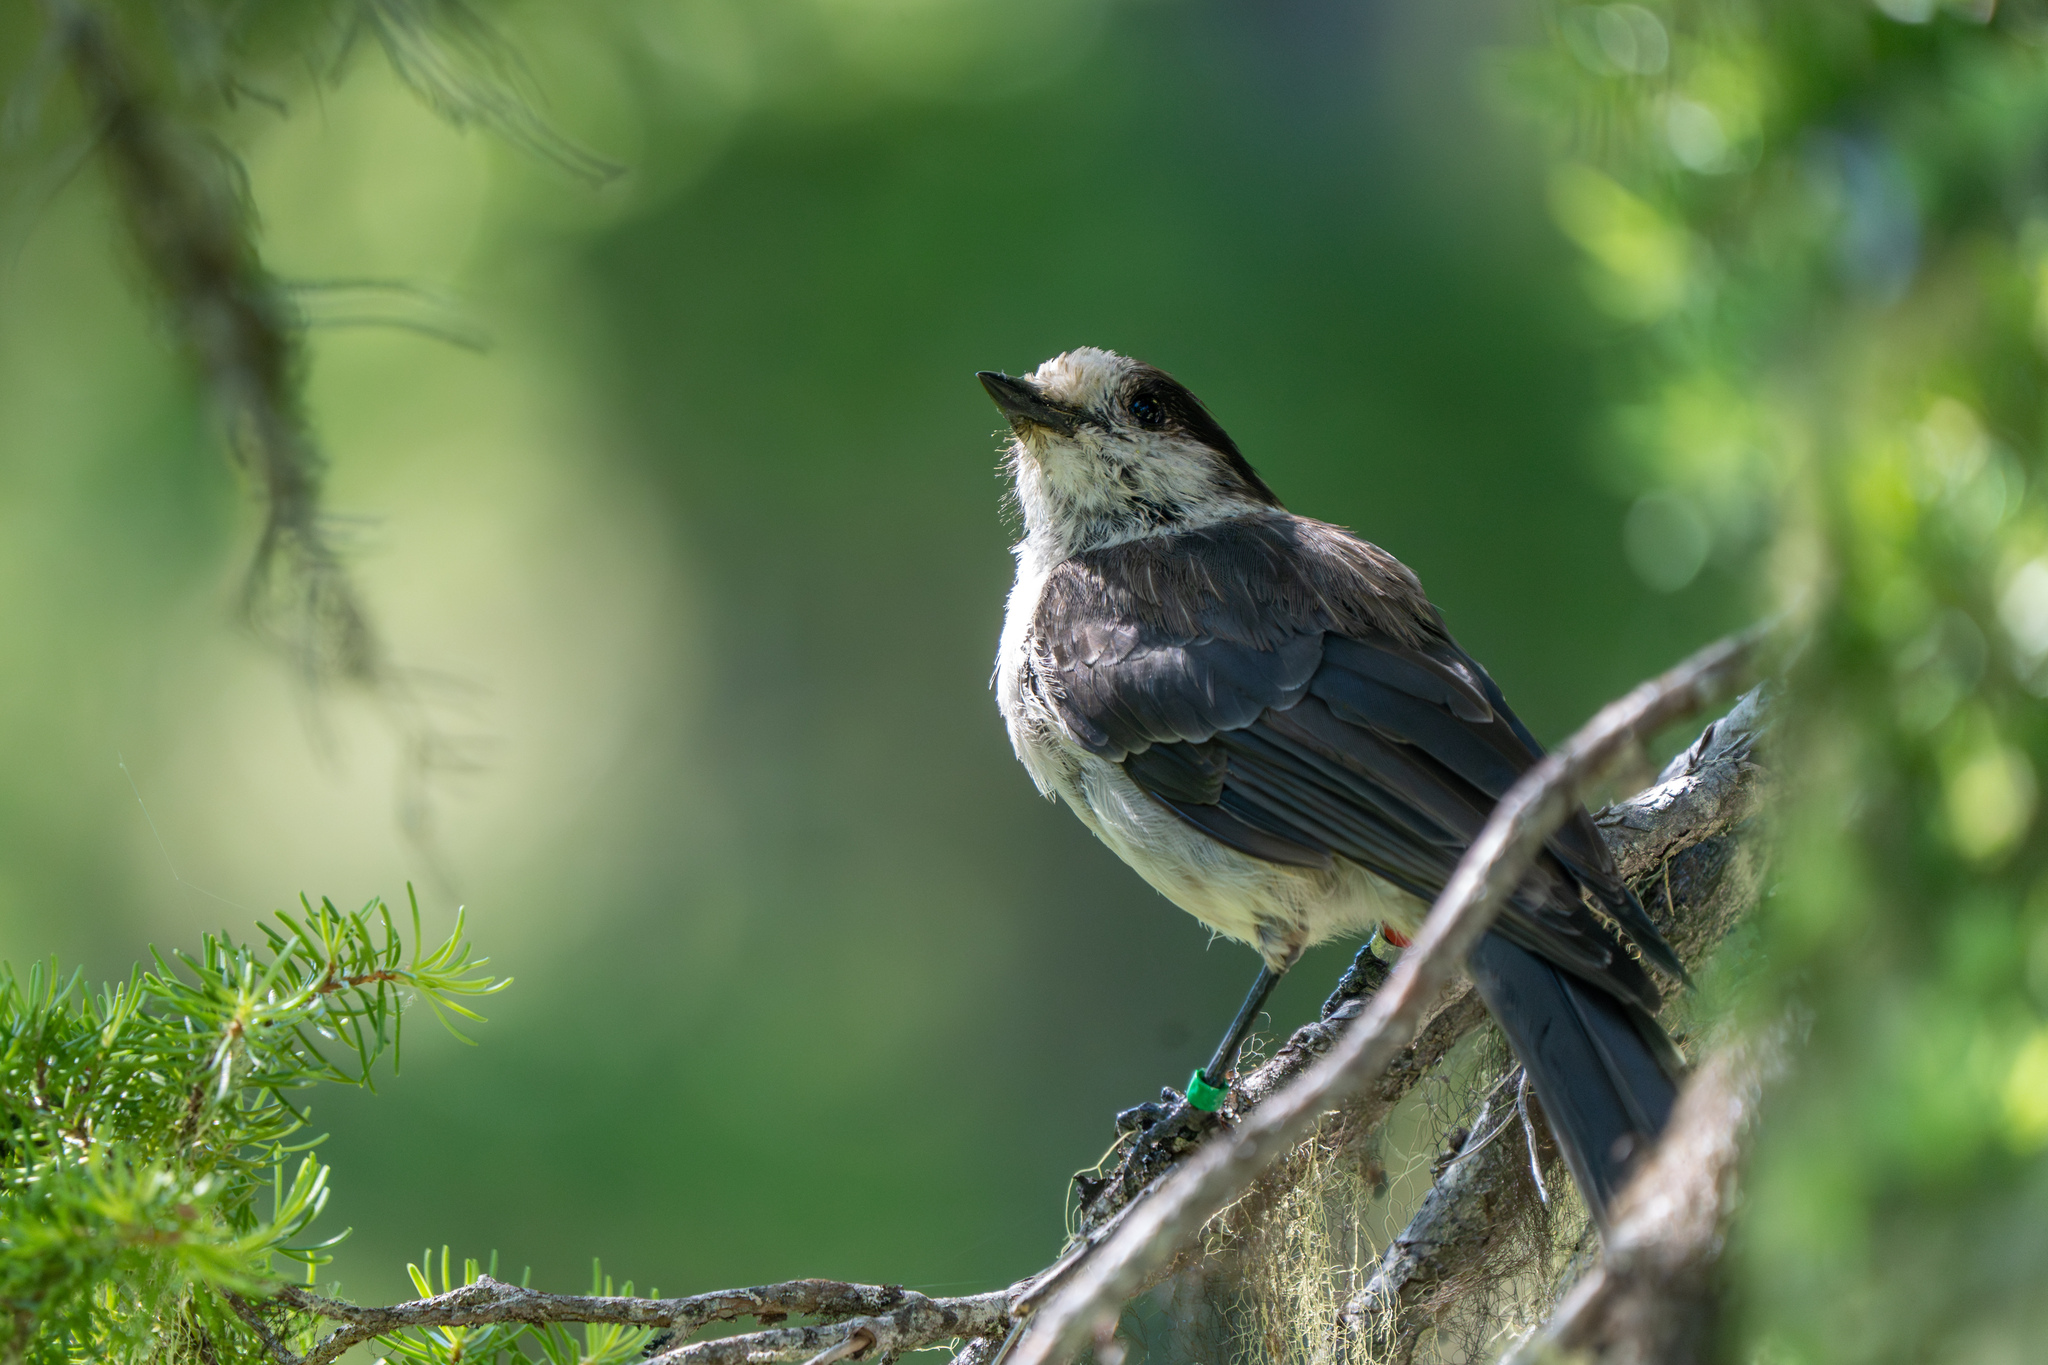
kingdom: Animalia
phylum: Chordata
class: Aves
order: Passeriformes
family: Corvidae
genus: Perisoreus
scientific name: Perisoreus canadensis
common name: Gray jay
